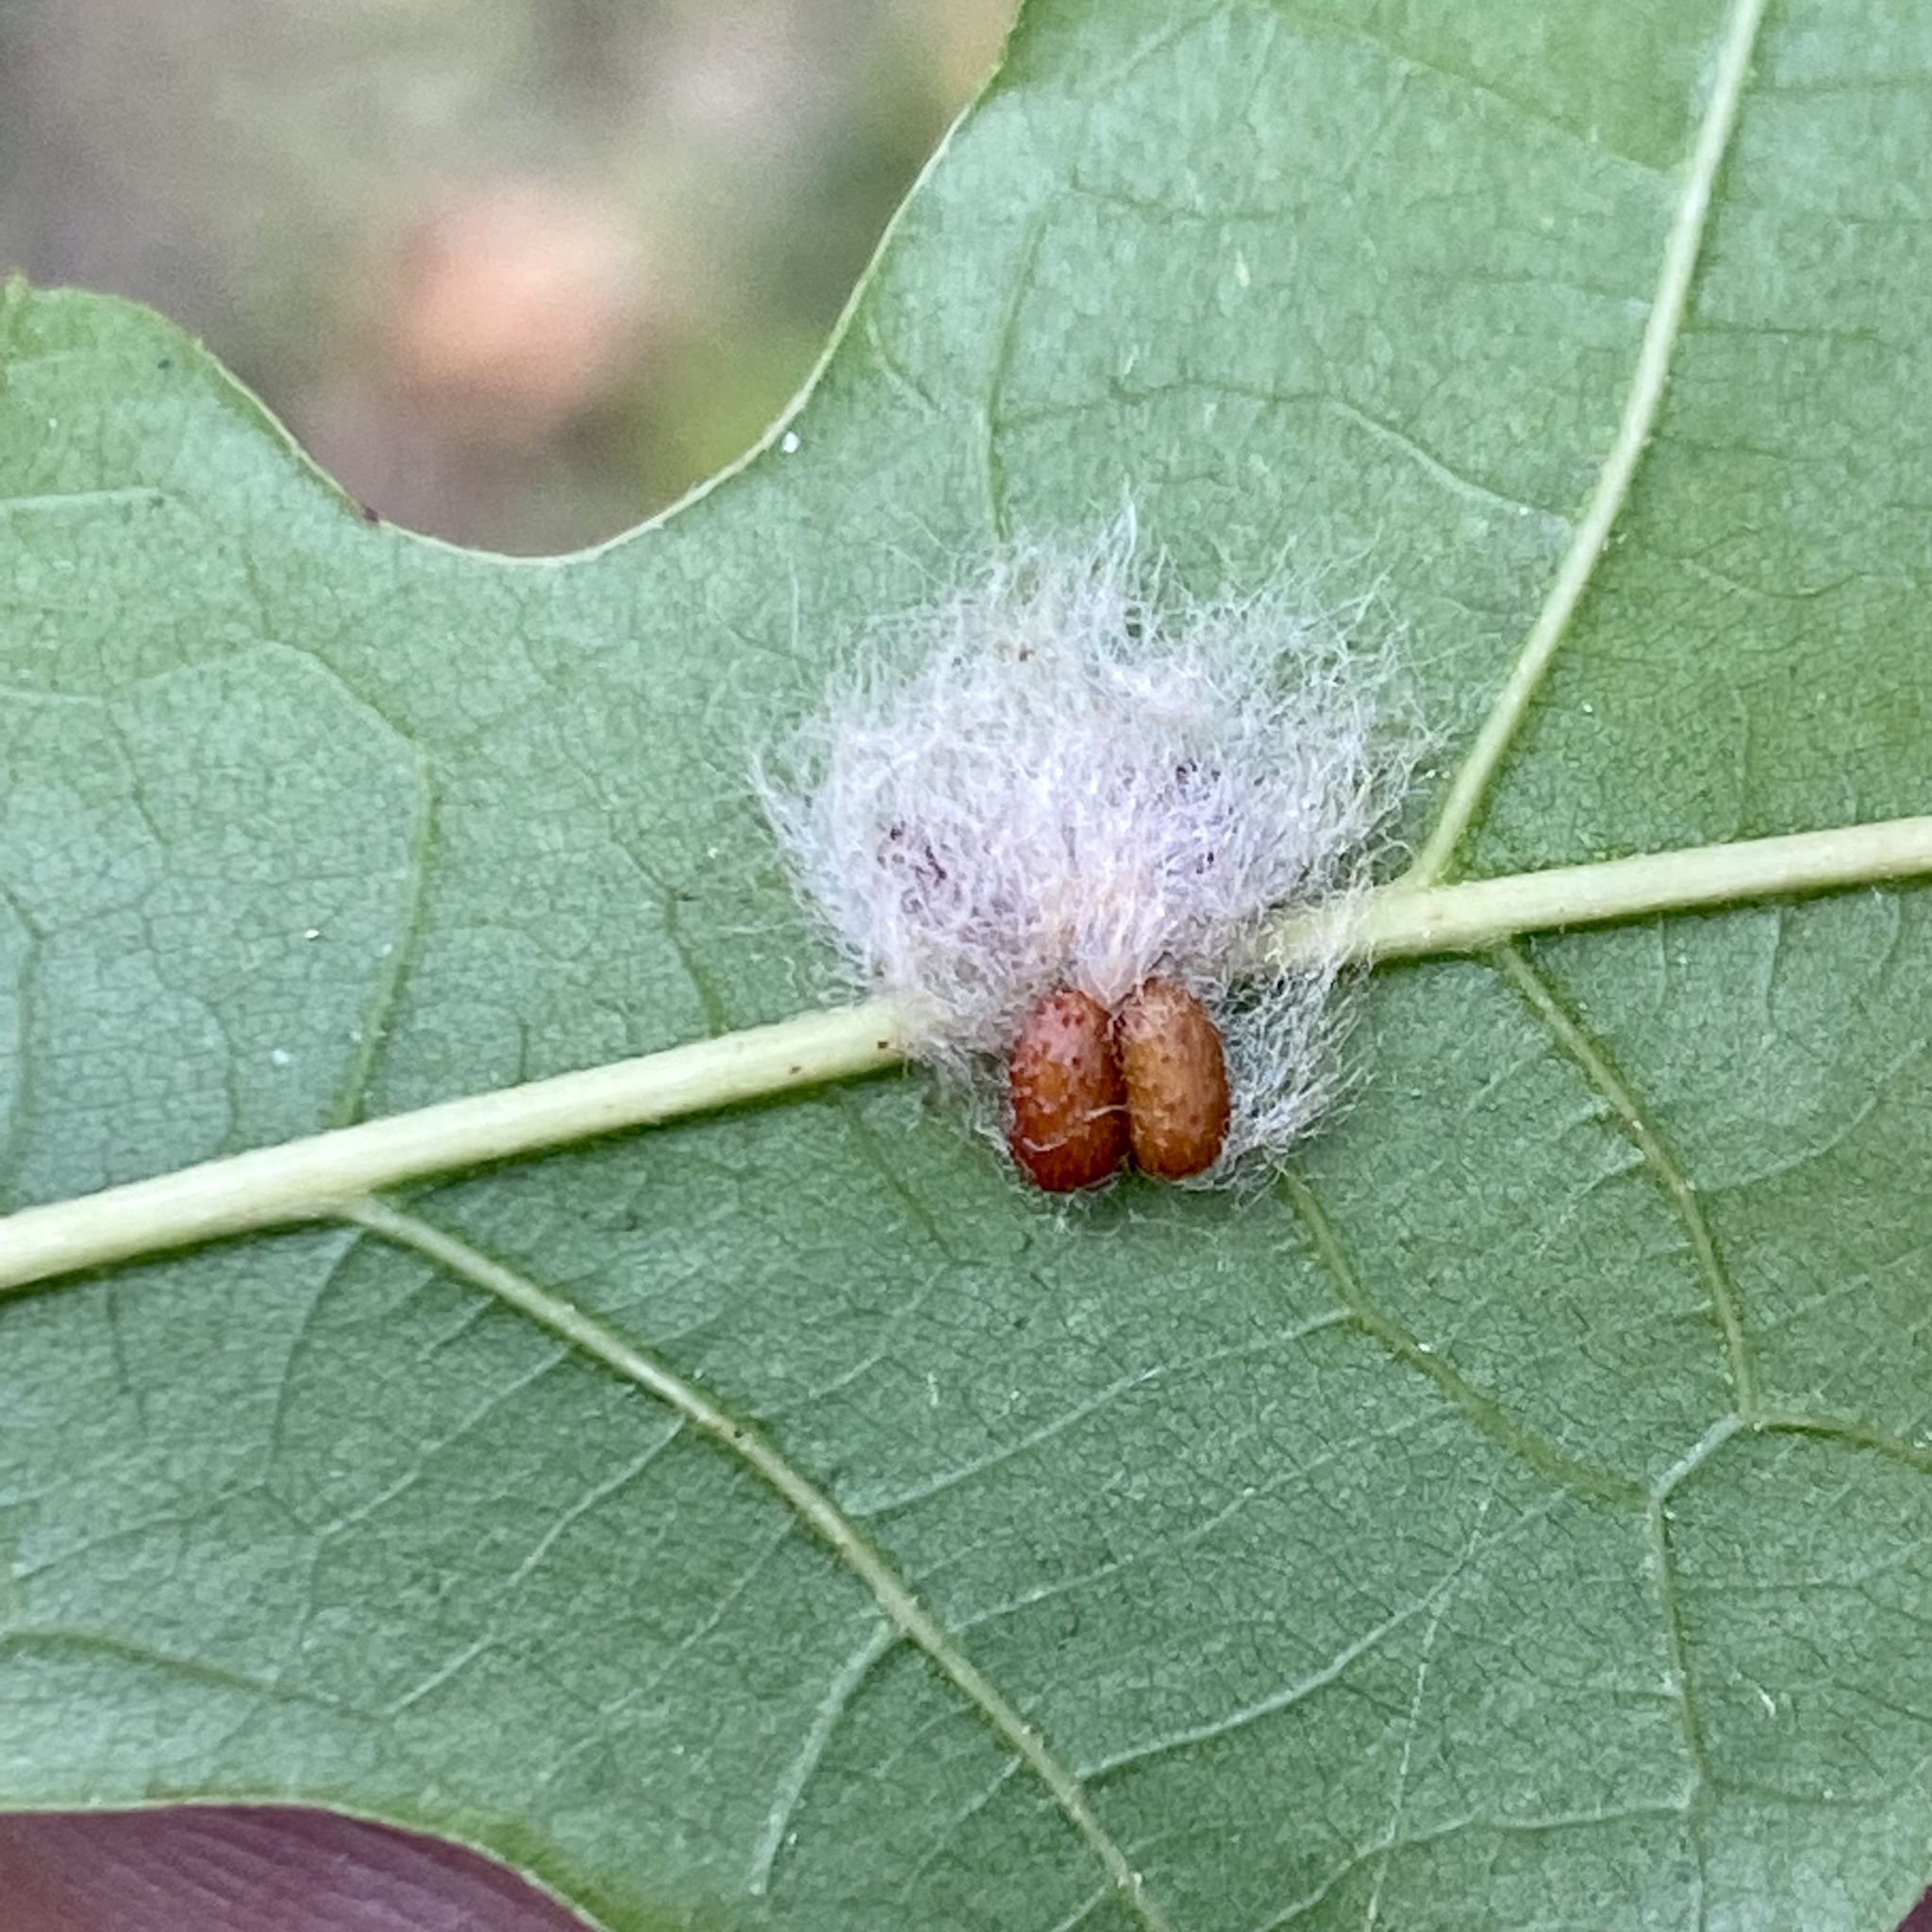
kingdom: Animalia
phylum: Arthropoda
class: Insecta
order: Hymenoptera
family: Cynipidae
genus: Andricus
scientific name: Andricus Druon ignotum
